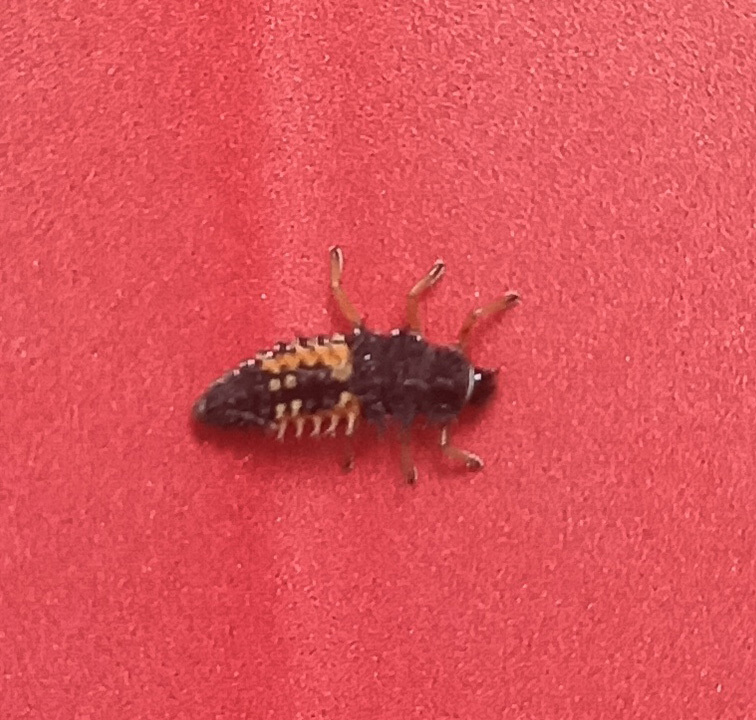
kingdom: Animalia
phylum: Arthropoda
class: Insecta
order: Coleoptera
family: Coccinellidae
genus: Harmonia
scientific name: Harmonia axyridis
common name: Harlequin ladybird
